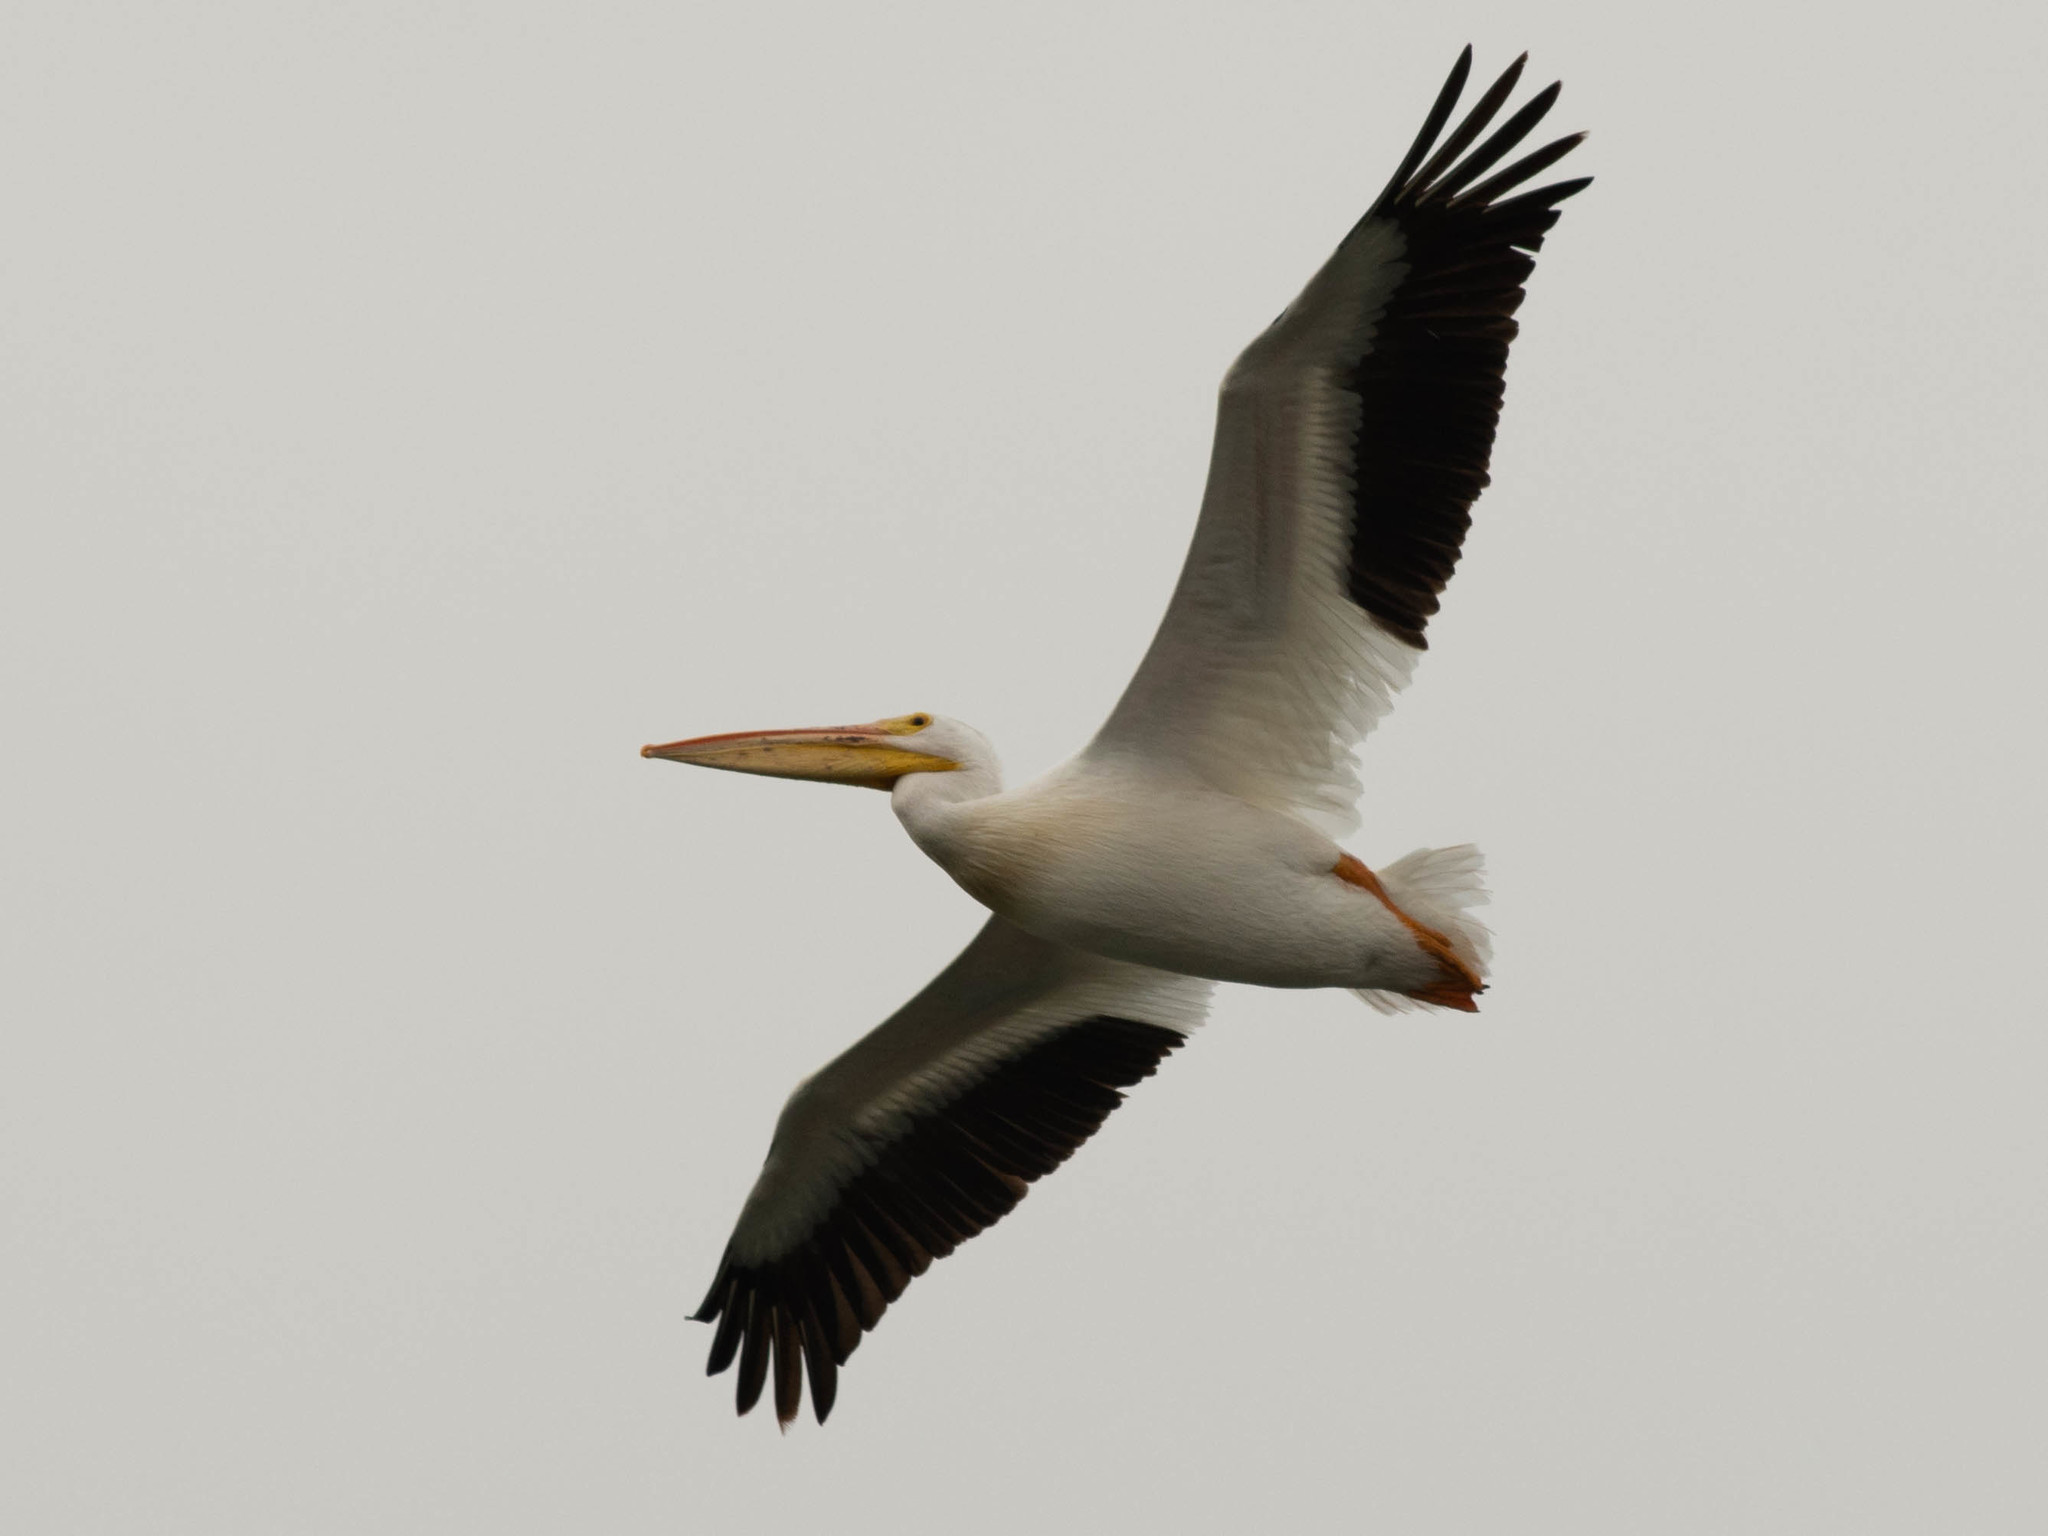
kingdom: Animalia
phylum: Chordata
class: Aves
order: Pelecaniformes
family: Pelecanidae
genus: Pelecanus
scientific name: Pelecanus erythrorhynchos
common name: American white pelican
